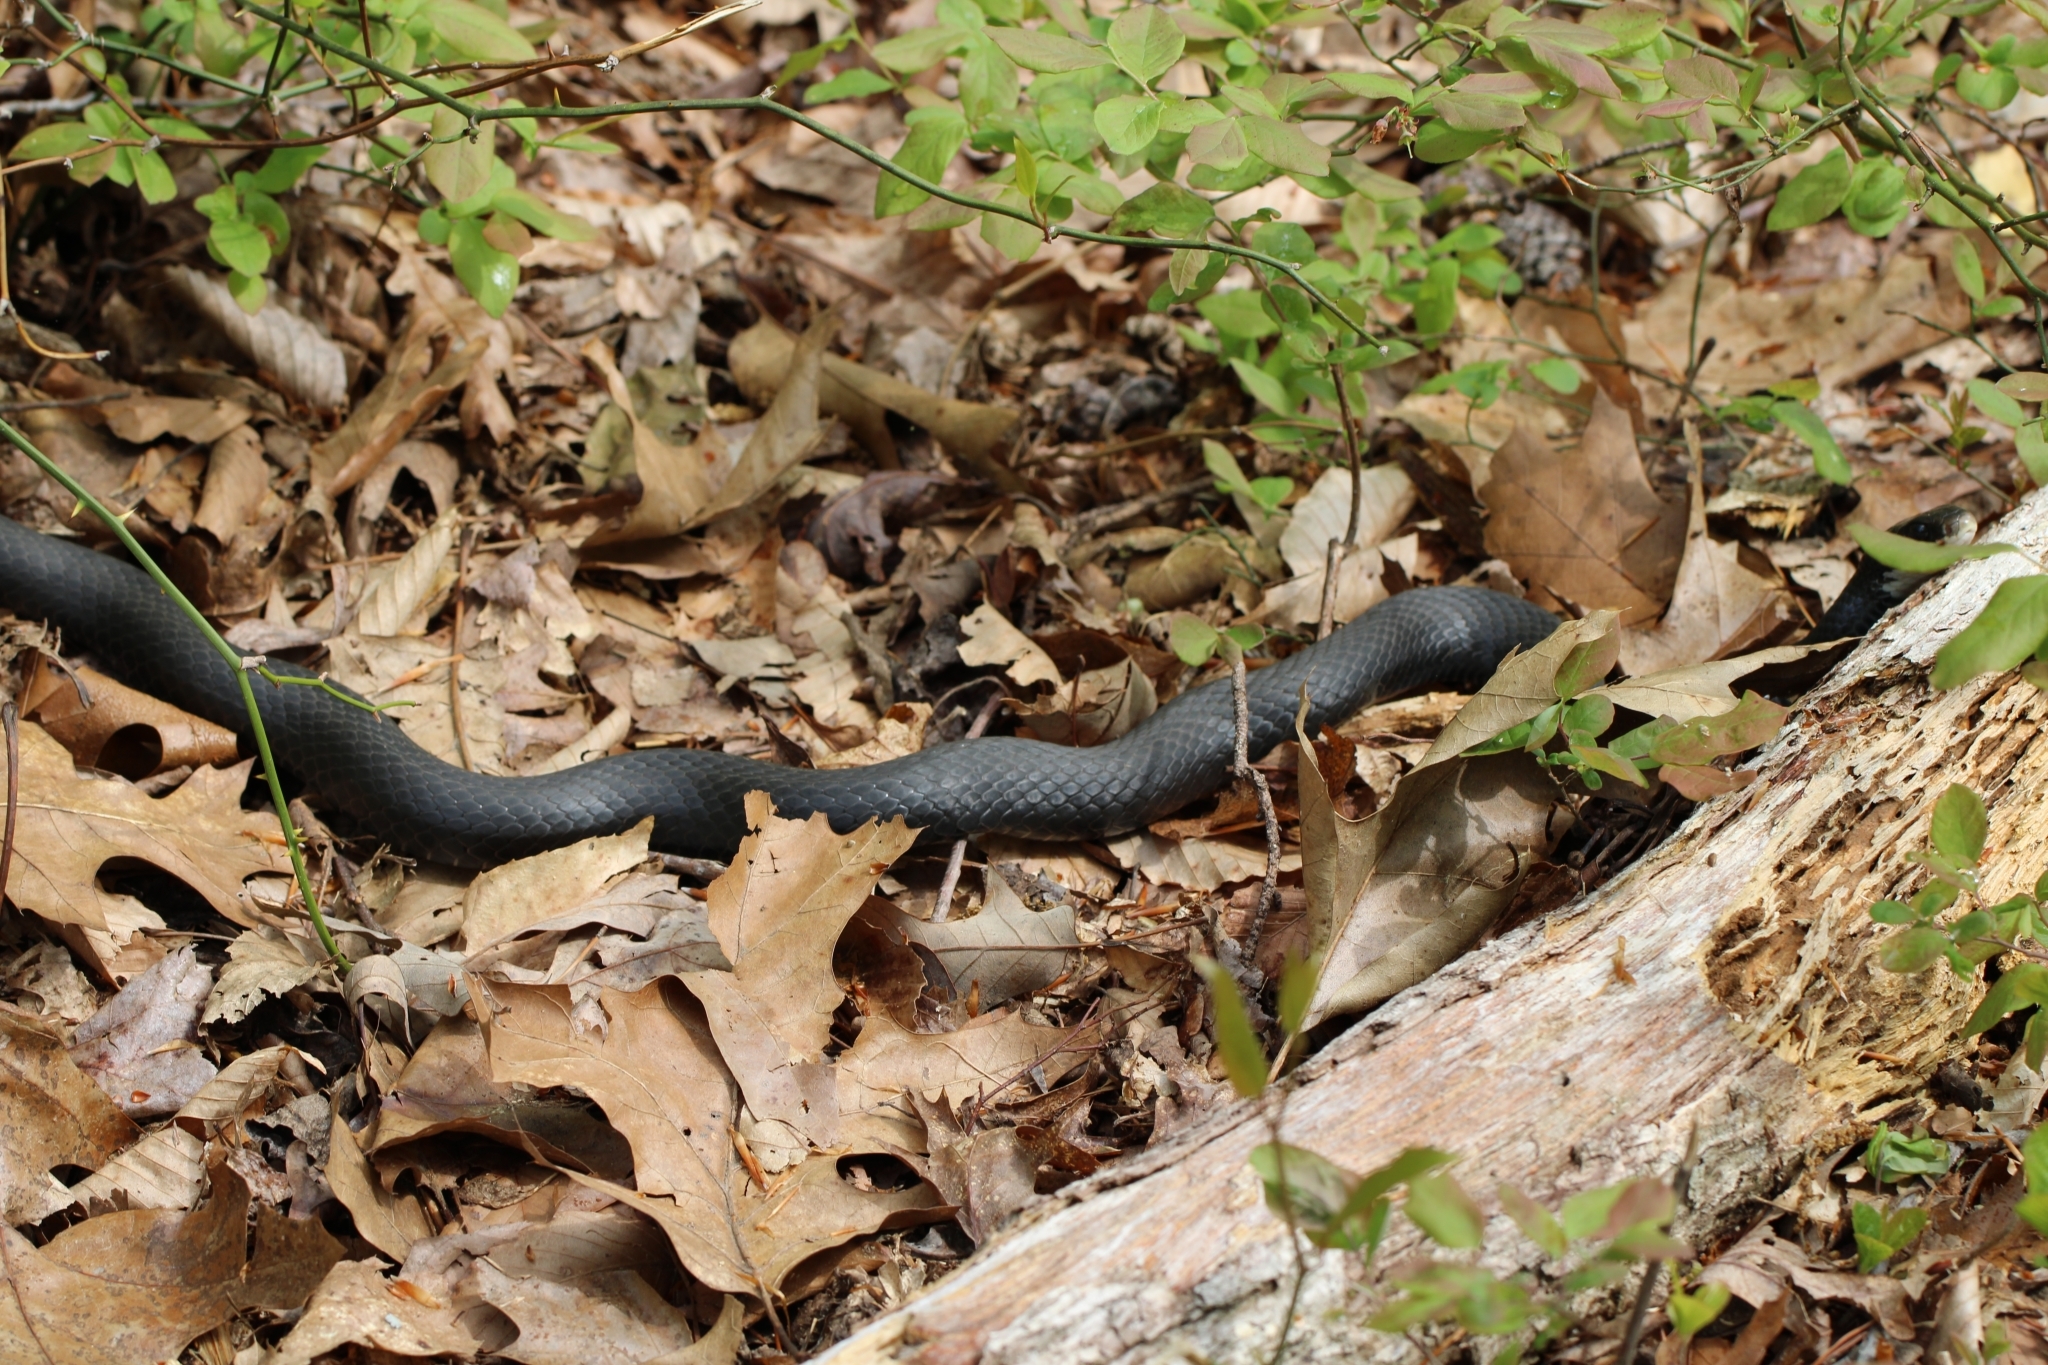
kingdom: Animalia
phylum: Chordata
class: Squamata
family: Colubridae
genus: Coluber
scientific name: Coluber constrictor
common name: Eastern racer
